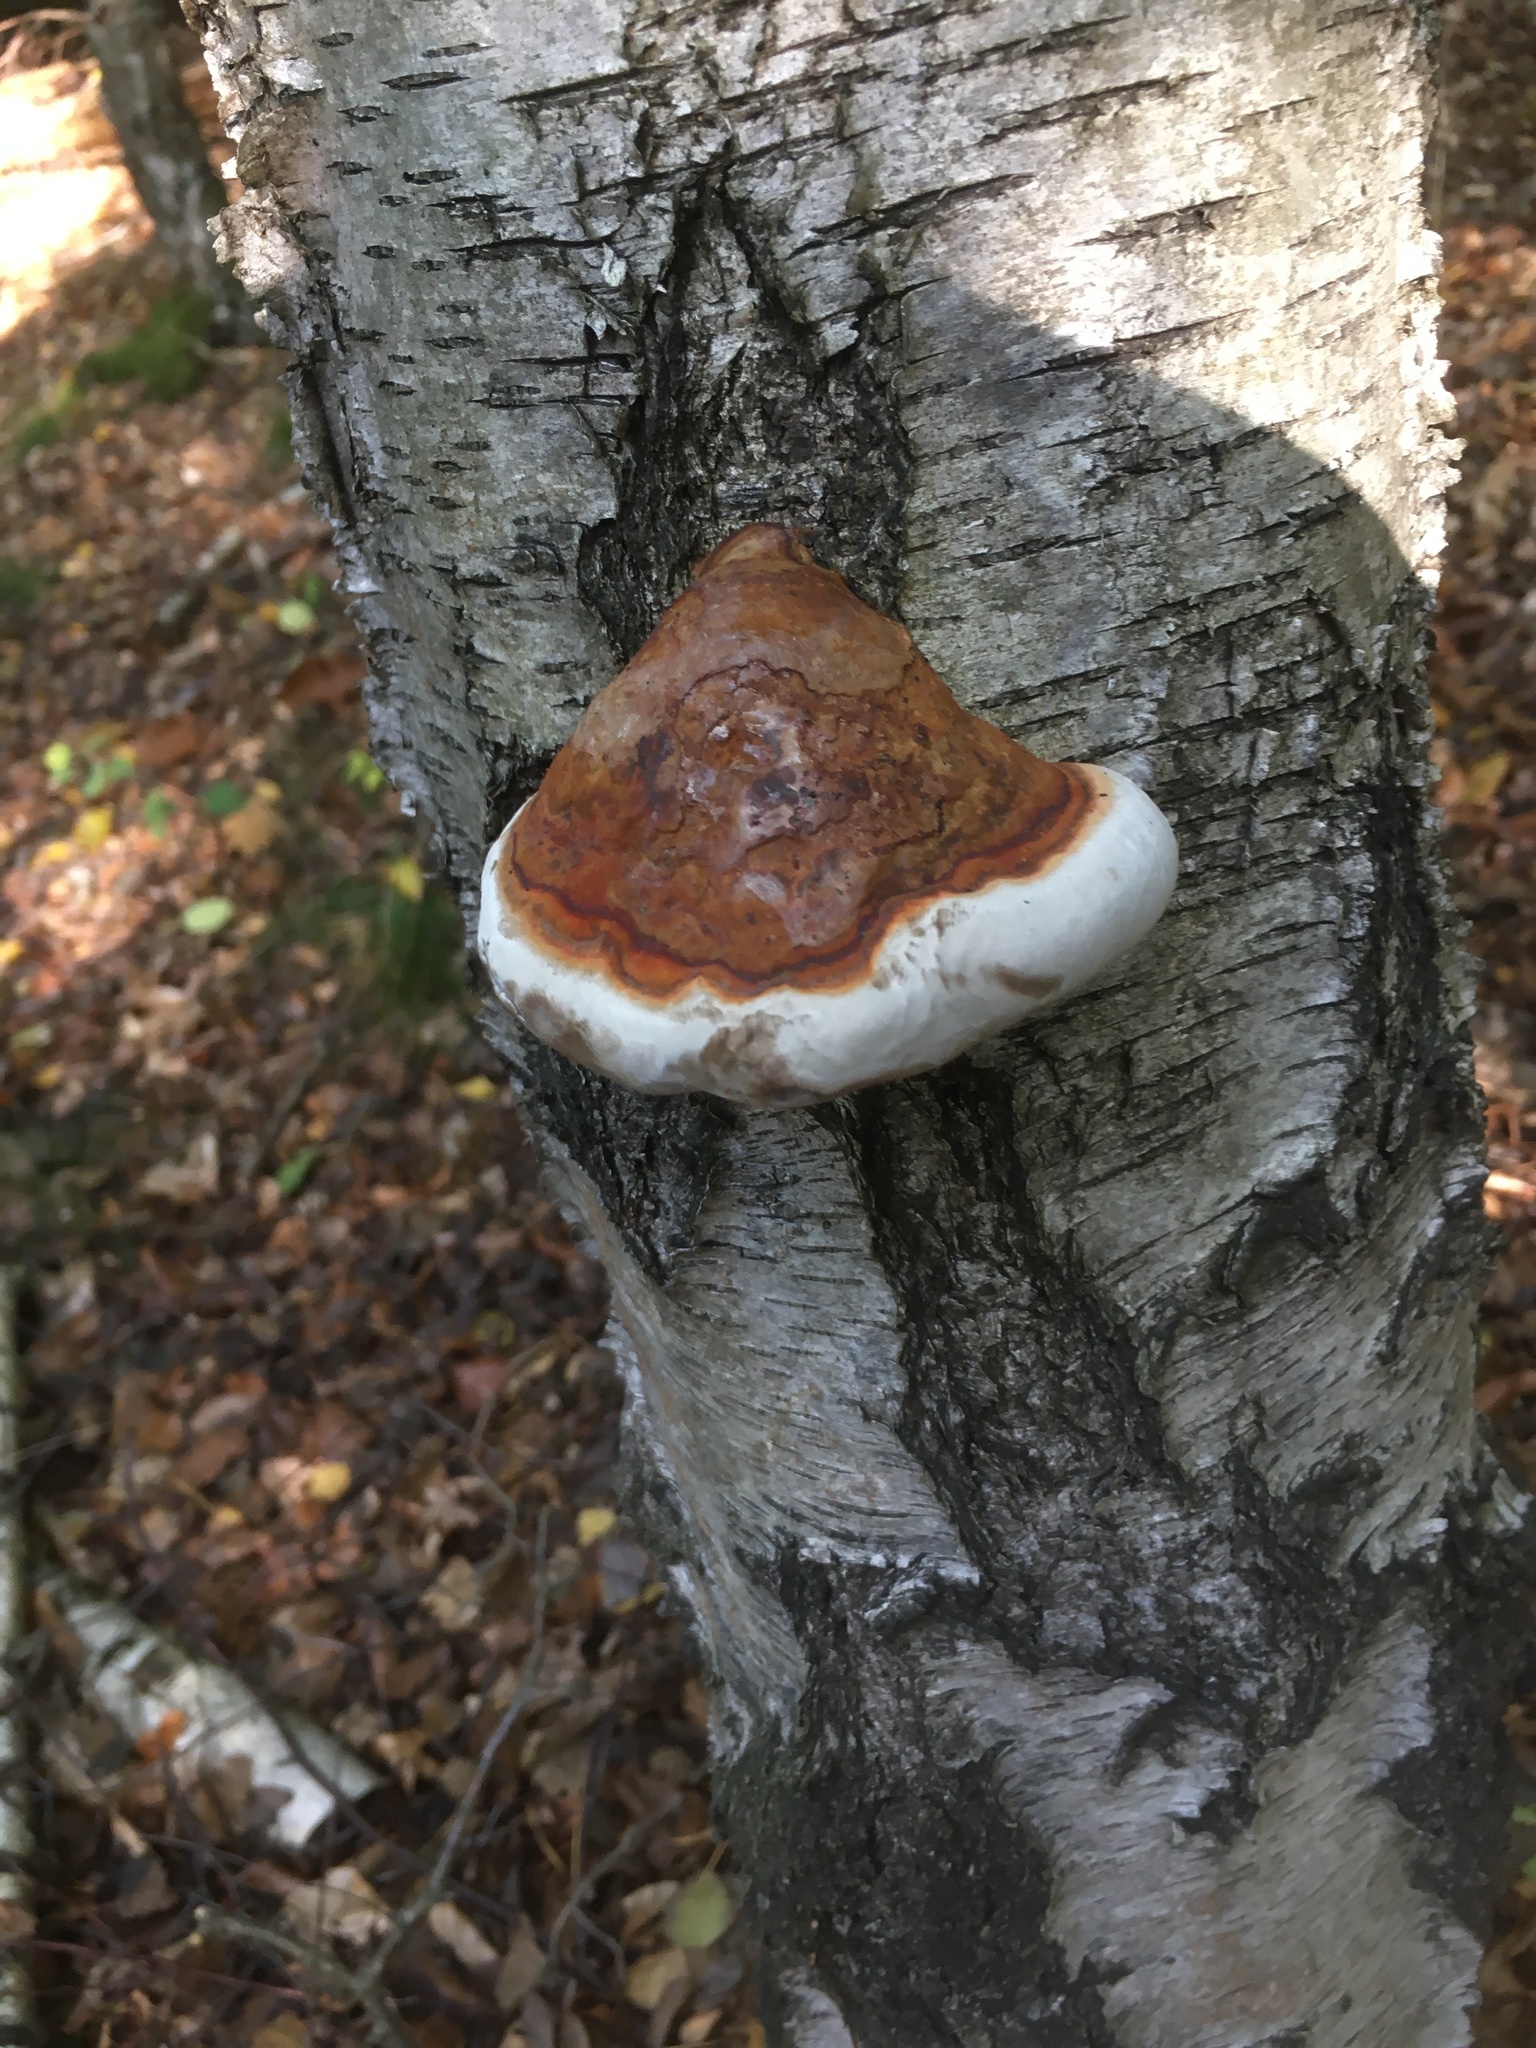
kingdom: Fungi
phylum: Basidiomycota
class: Agaricomycetes
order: Polyporales
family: Fomitopsidaceae
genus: Fomitopsis
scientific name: Fomitopsis pinicola
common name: Red-belted bracket
